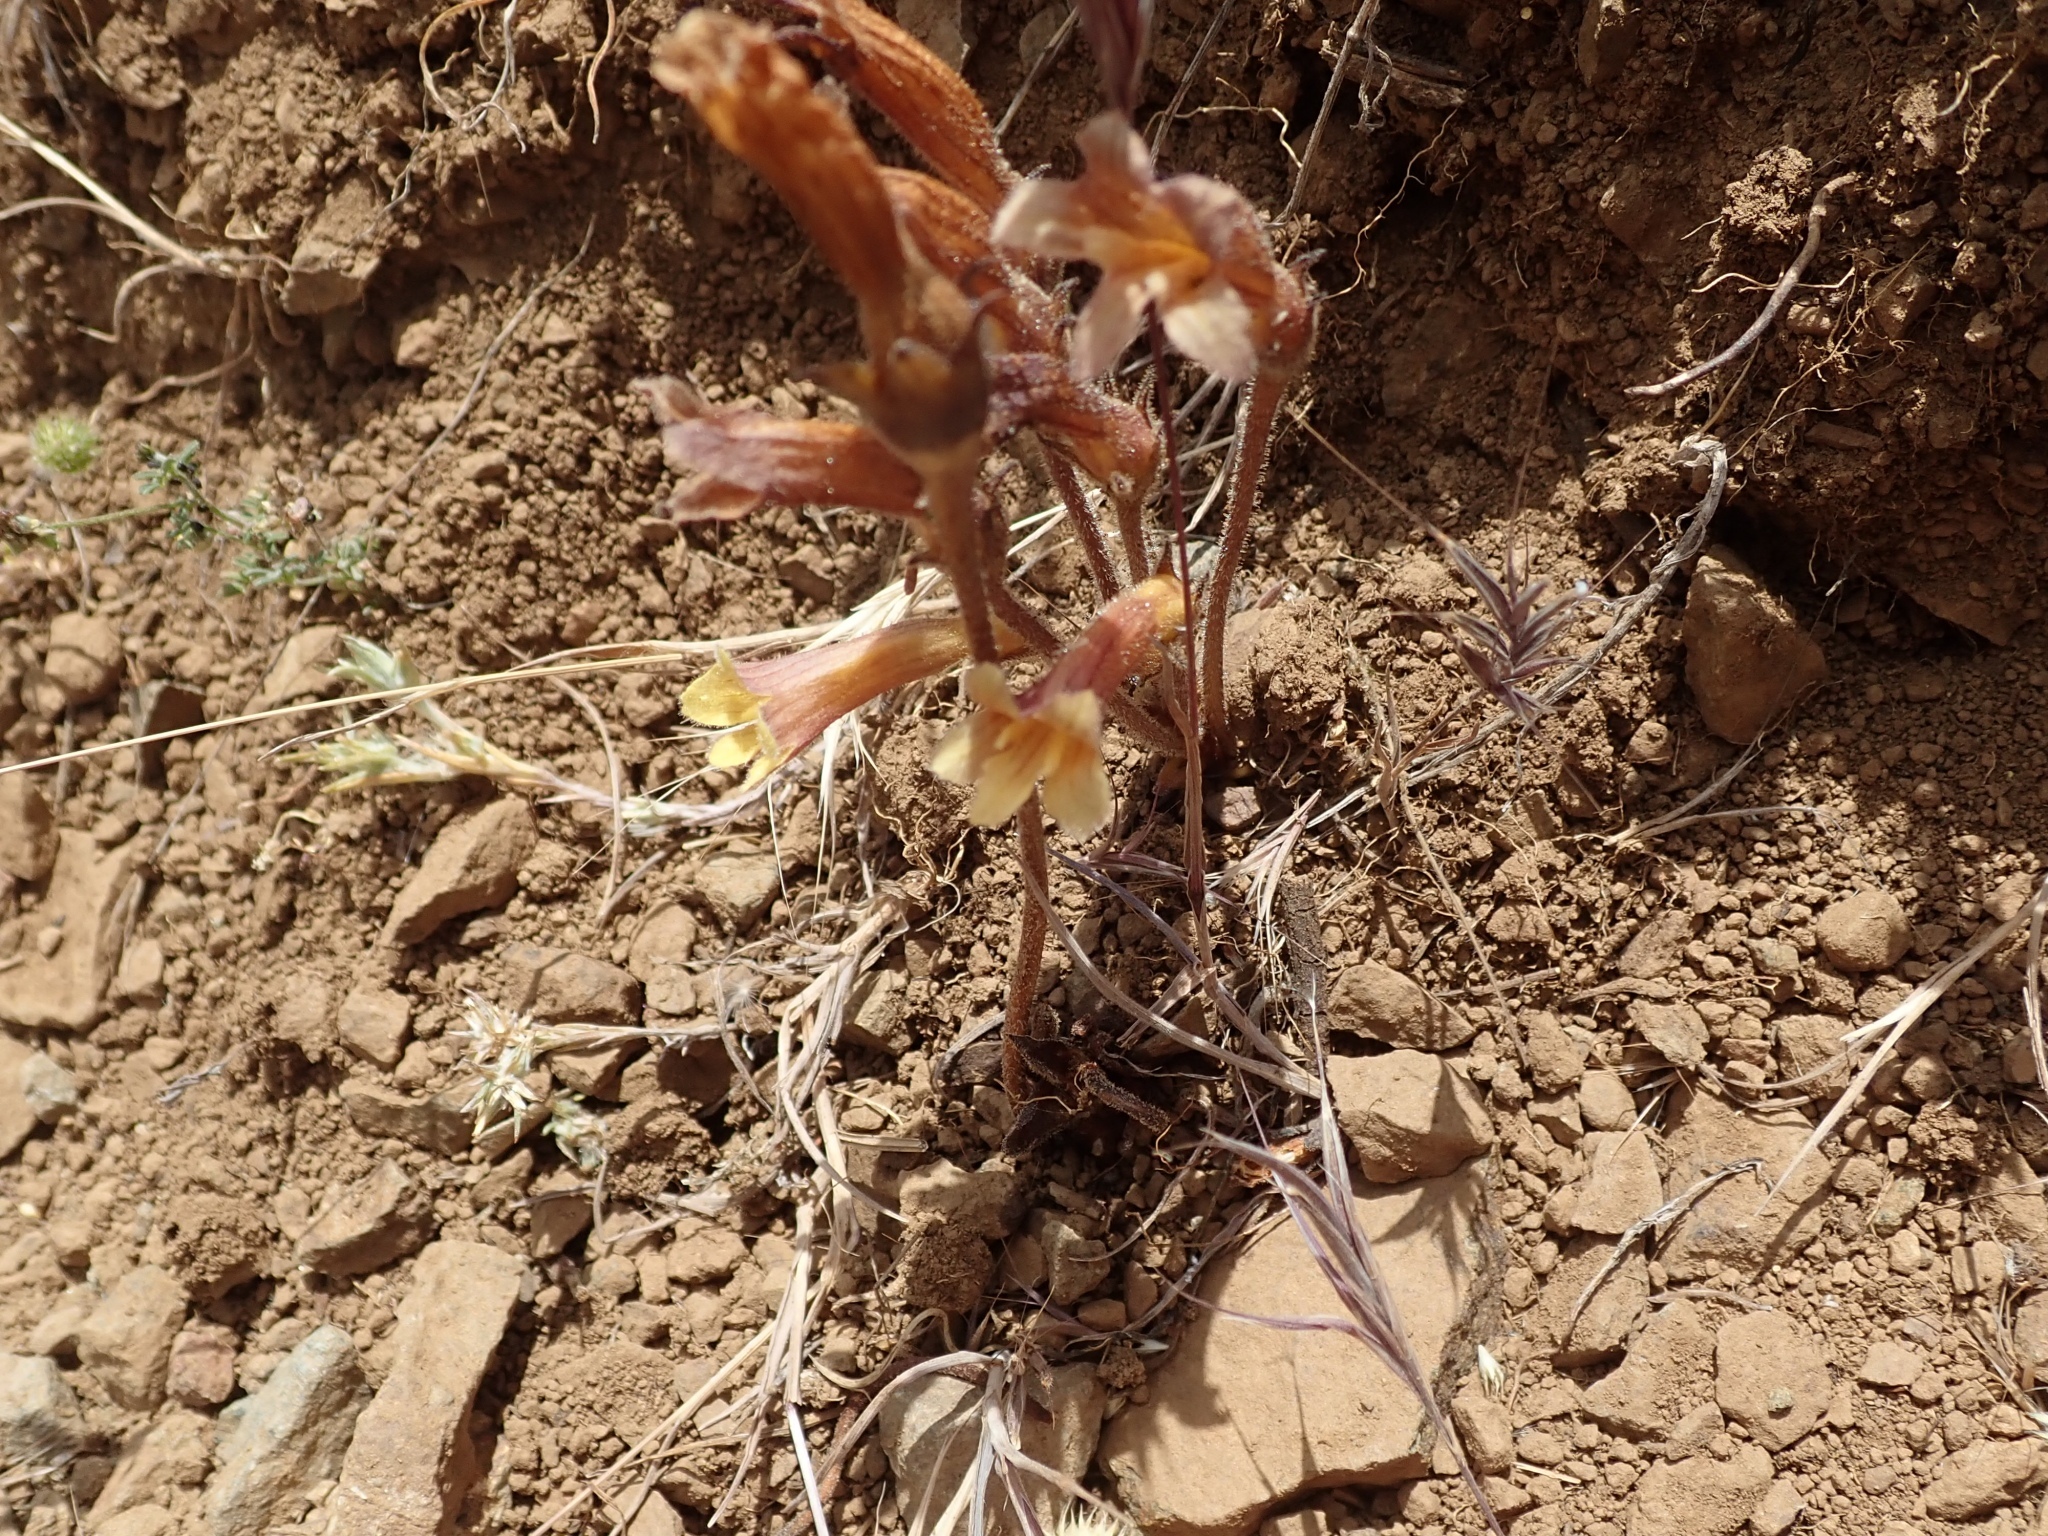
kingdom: Plantae
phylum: Tracheophyta
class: Magnoliopsida
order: Lamiales
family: Orobanchaceae
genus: Aphyllon
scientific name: Aphyllon franciscanum
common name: San francisco broomrape
